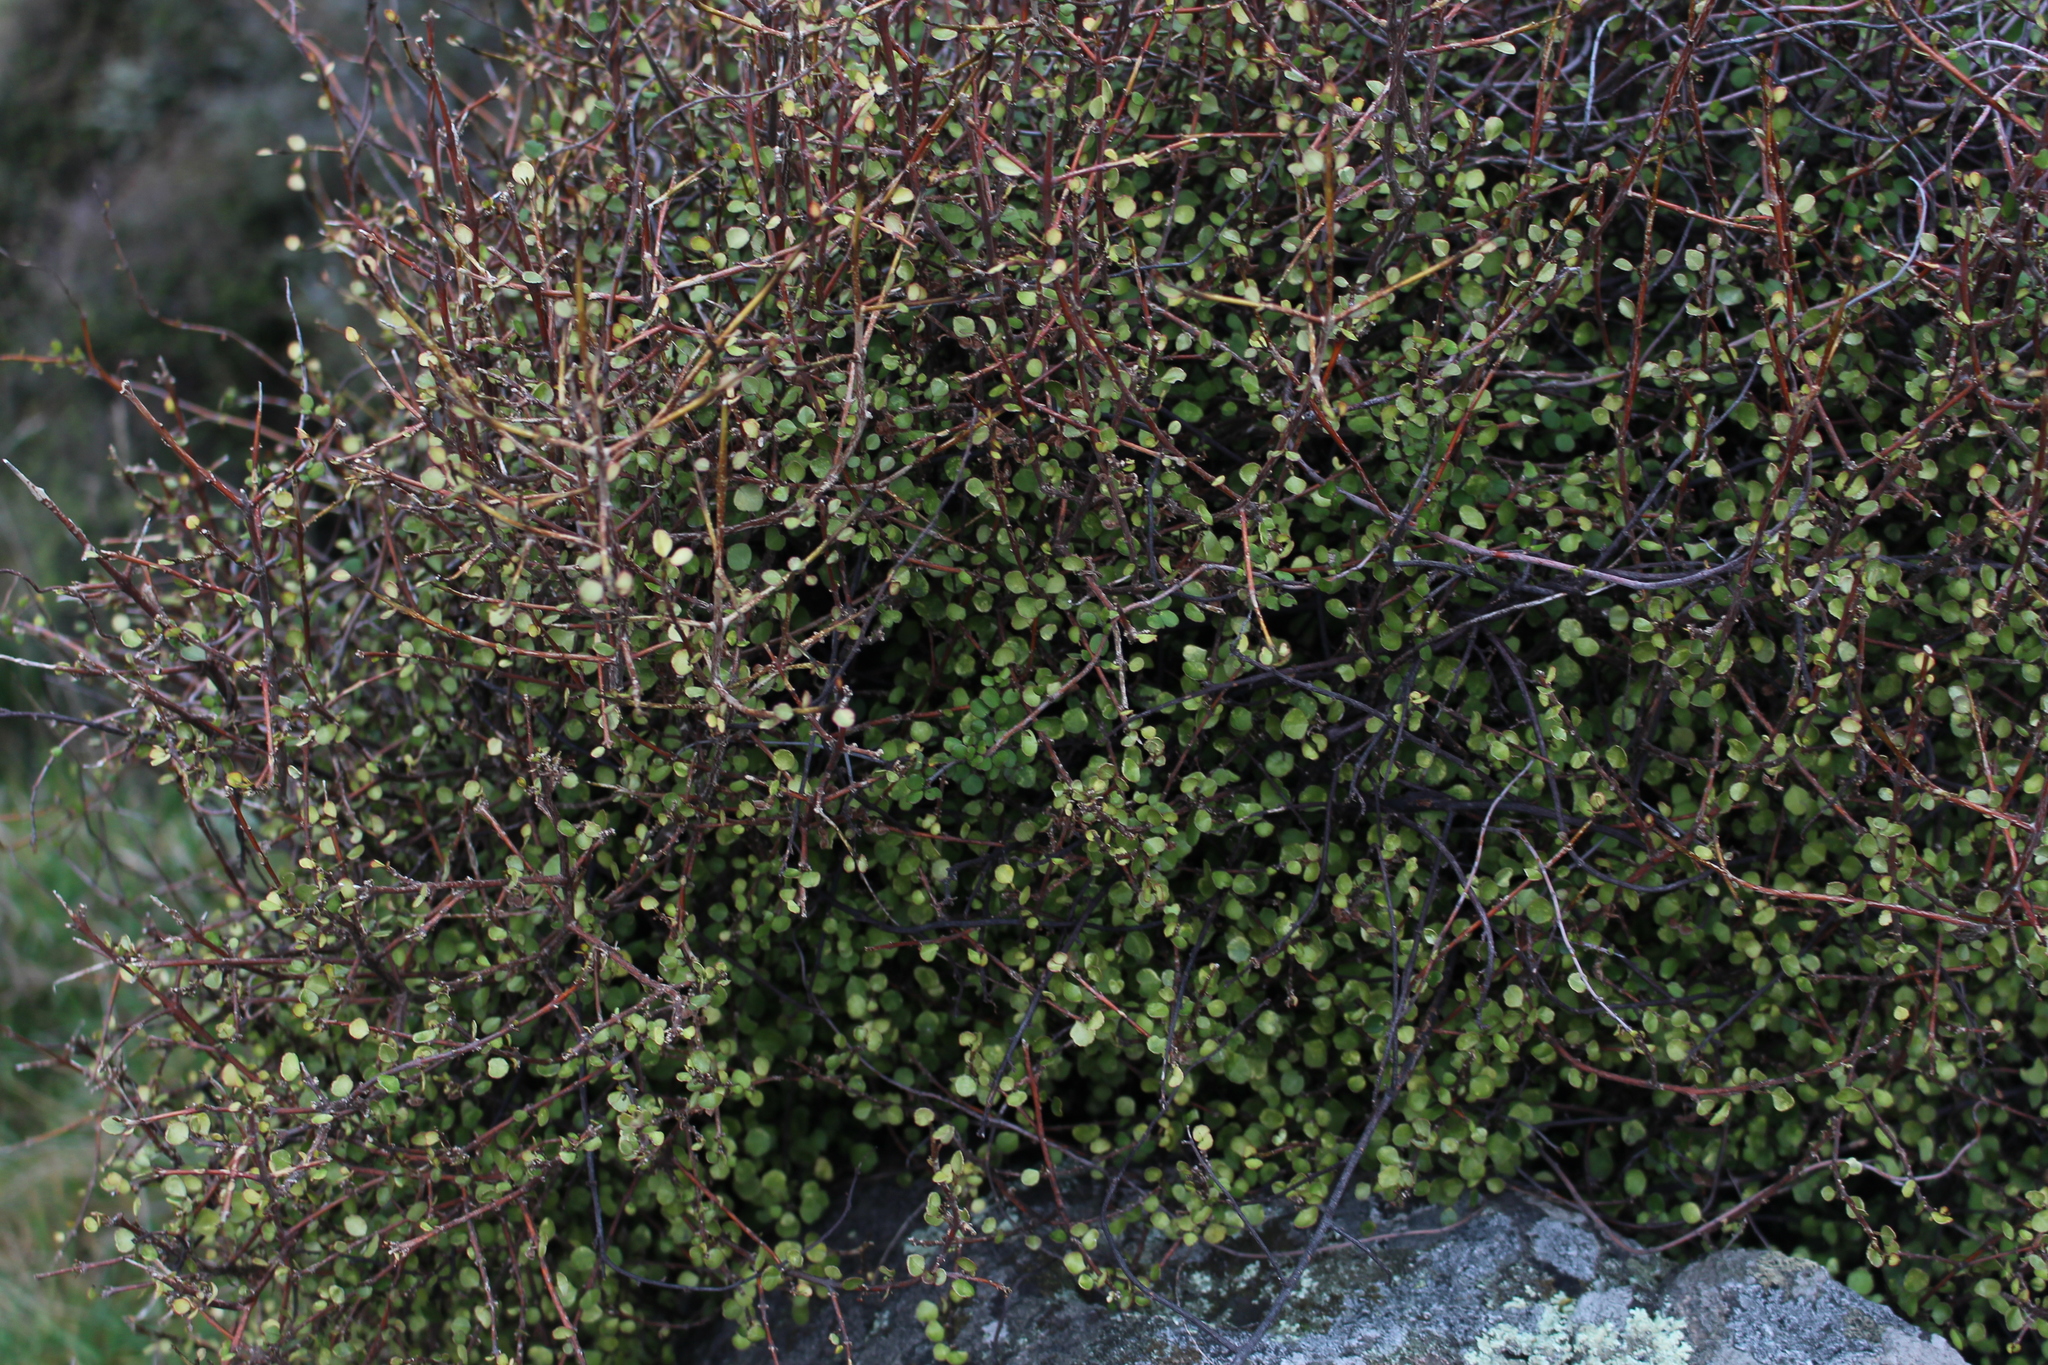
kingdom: Plantae
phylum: Tracheophyta
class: Magnoliopsida
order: Sapindales
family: Rutaceae
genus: Melicope
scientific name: Melicope simplex
